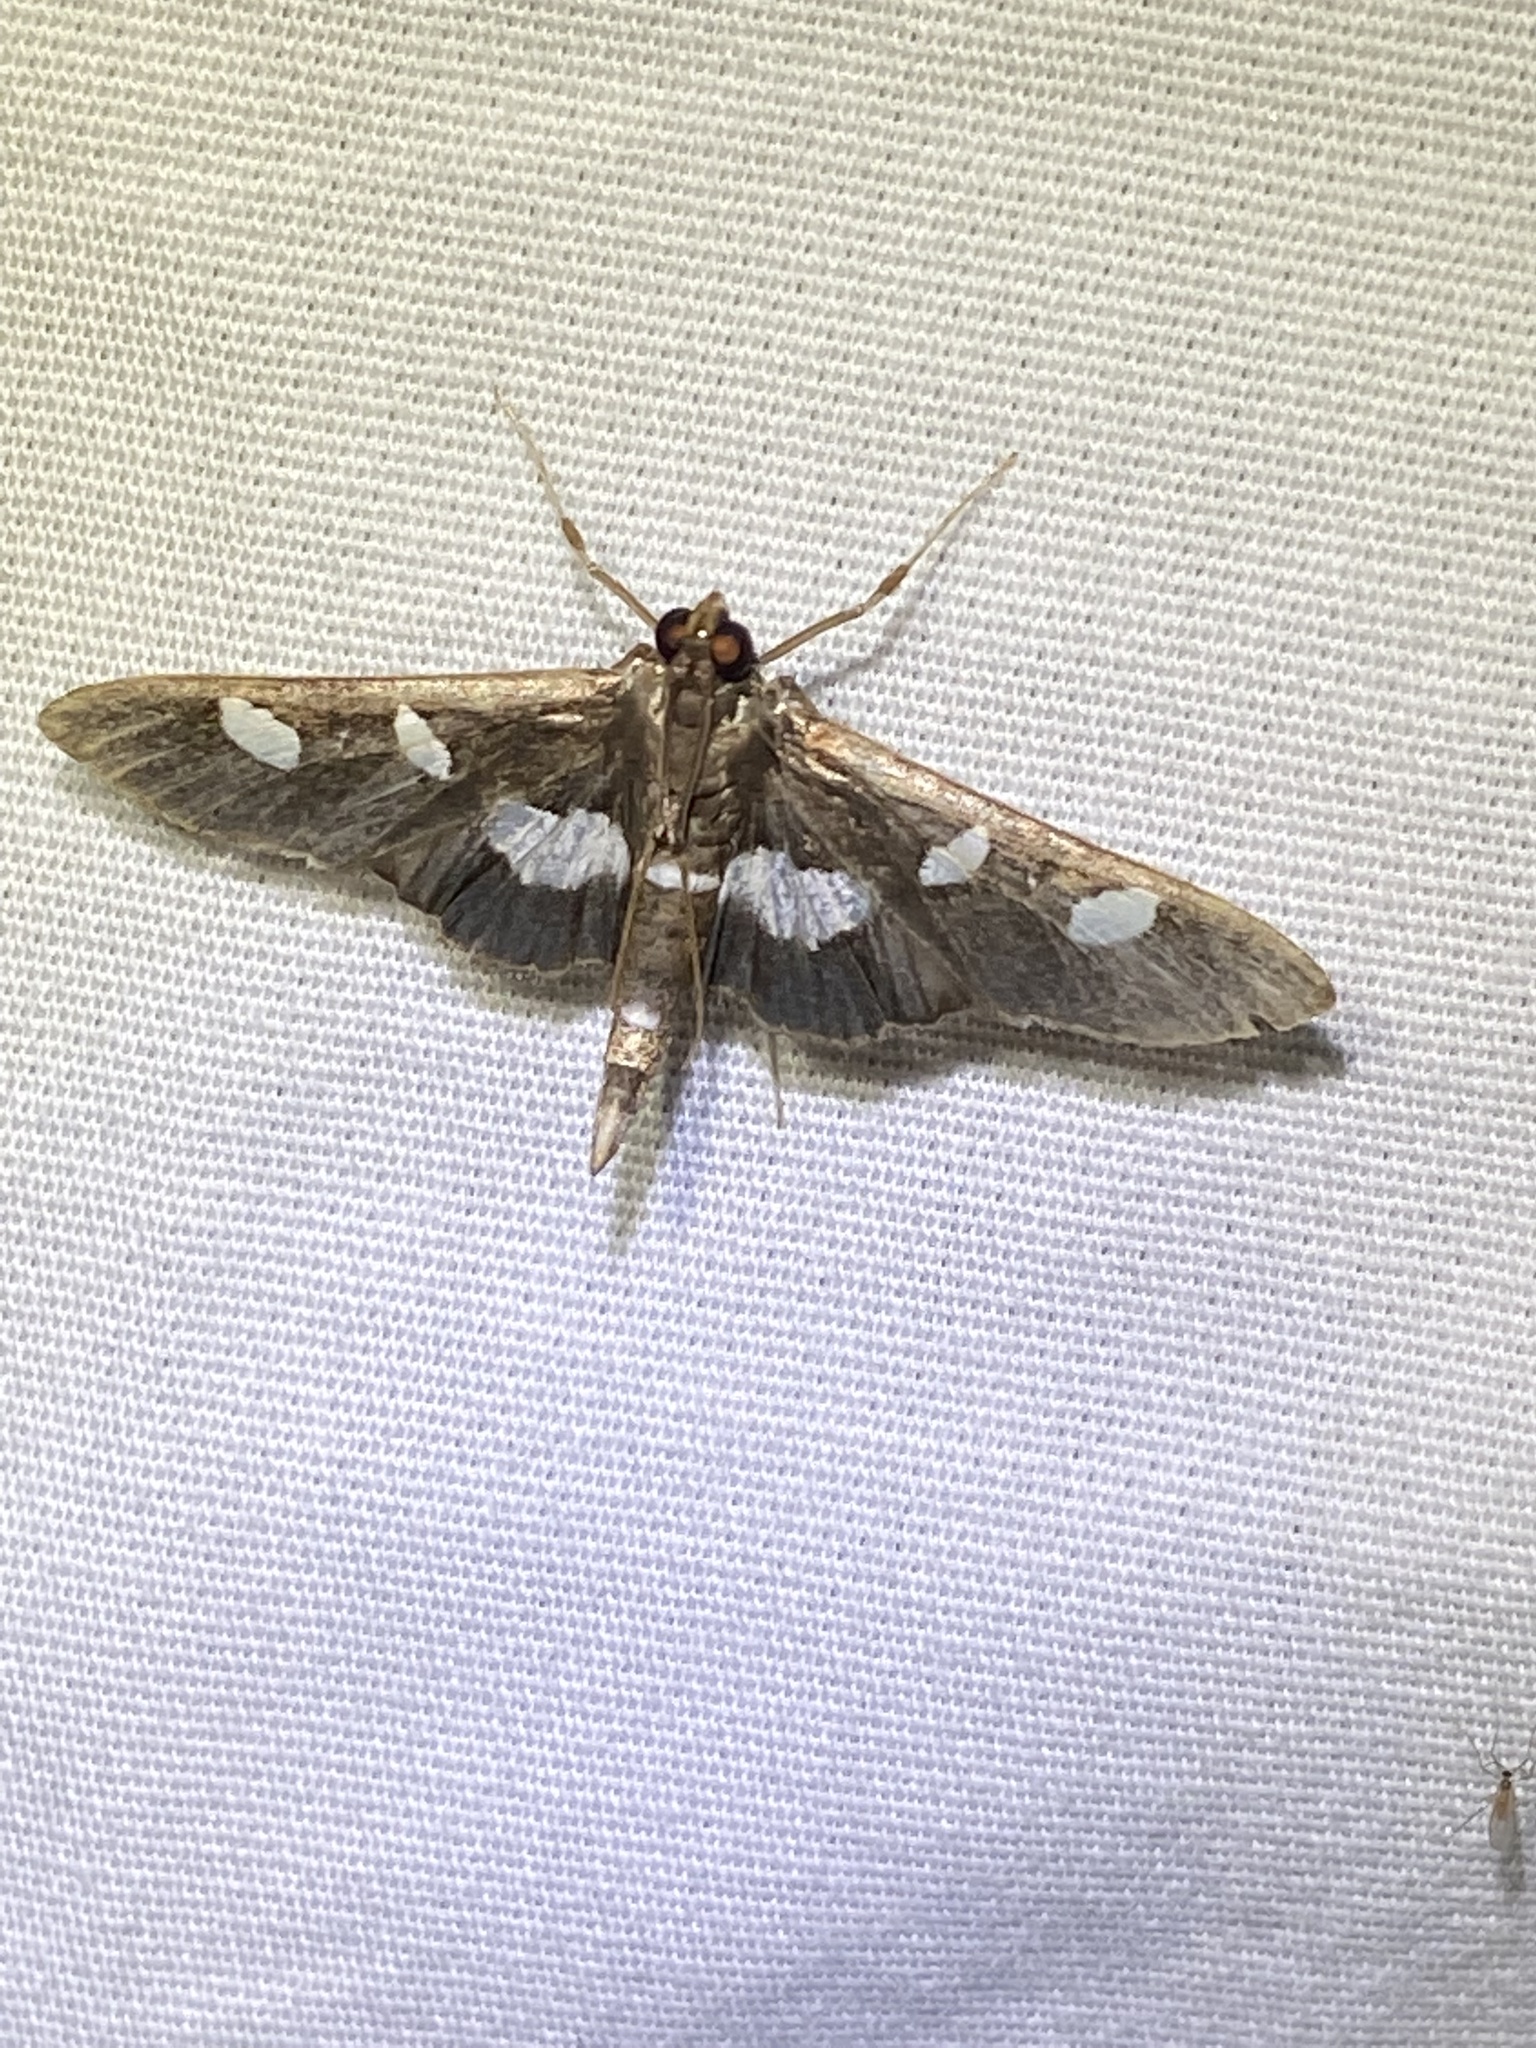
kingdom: Animalia
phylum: Arthropoda
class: Insecta
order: Lepidoptera
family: Crambidae
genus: Desmia
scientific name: Desmia
